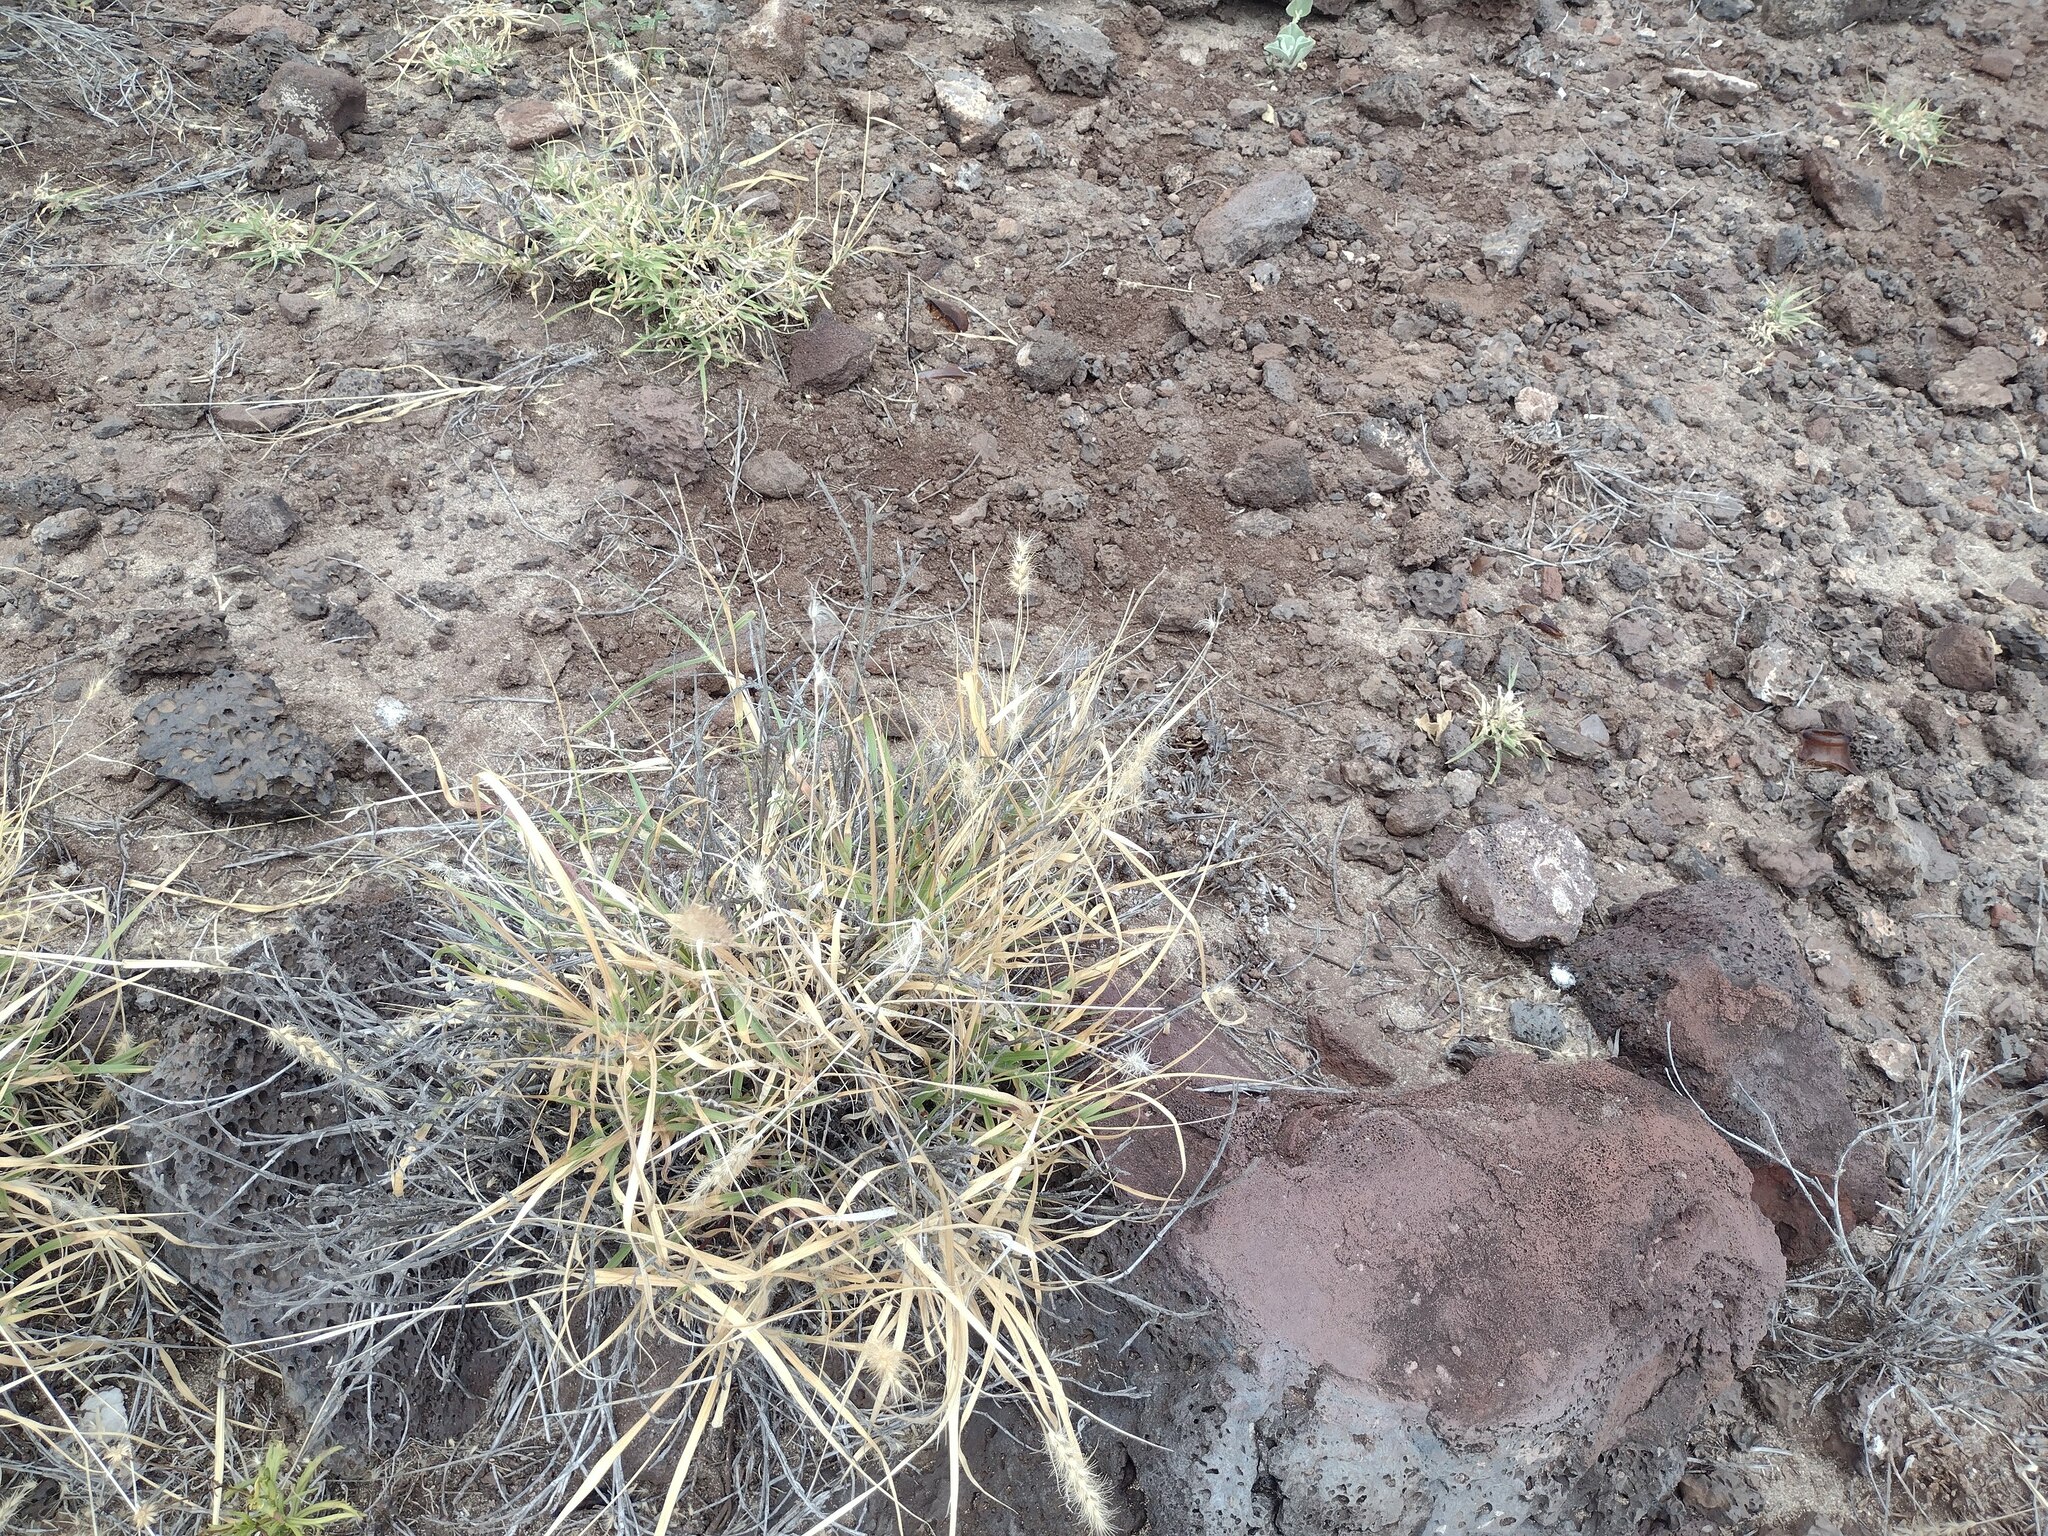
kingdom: Plantae
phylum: Tracheophyta
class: Liliopsida
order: Poales
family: Poaceae
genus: Cenchrus
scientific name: Cenchrus ciliaris
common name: Buffelgrass
